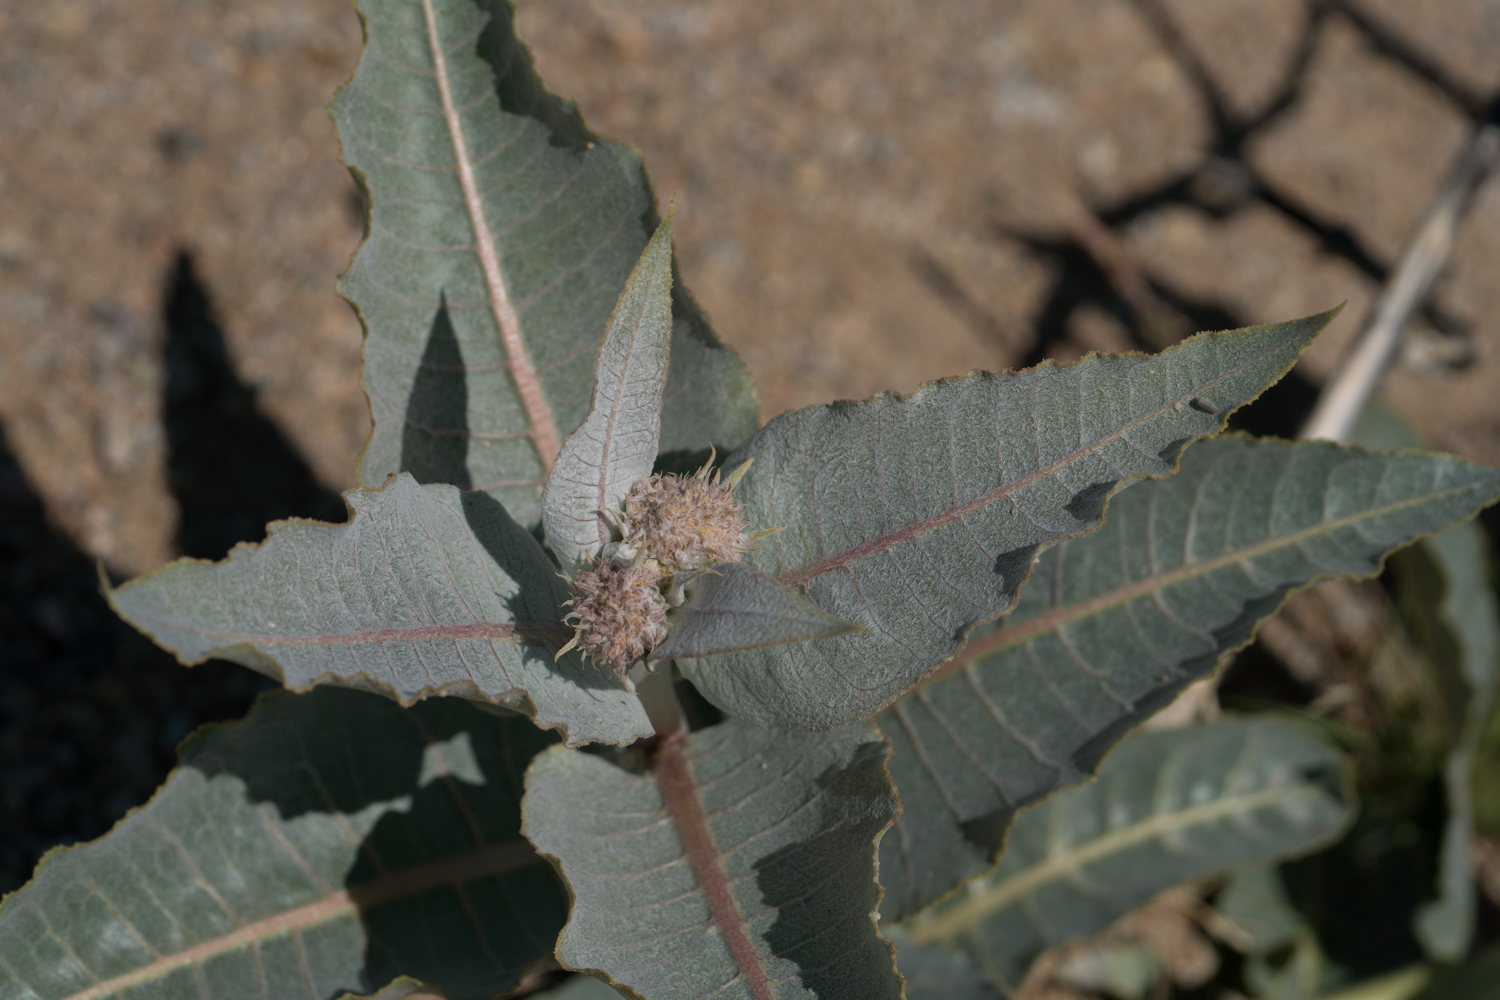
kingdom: Plantae
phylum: Tracheophyta
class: Magnoliopsida
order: Gentianales
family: Apocynaceae
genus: Asclepias
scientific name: Asclepias erosa
